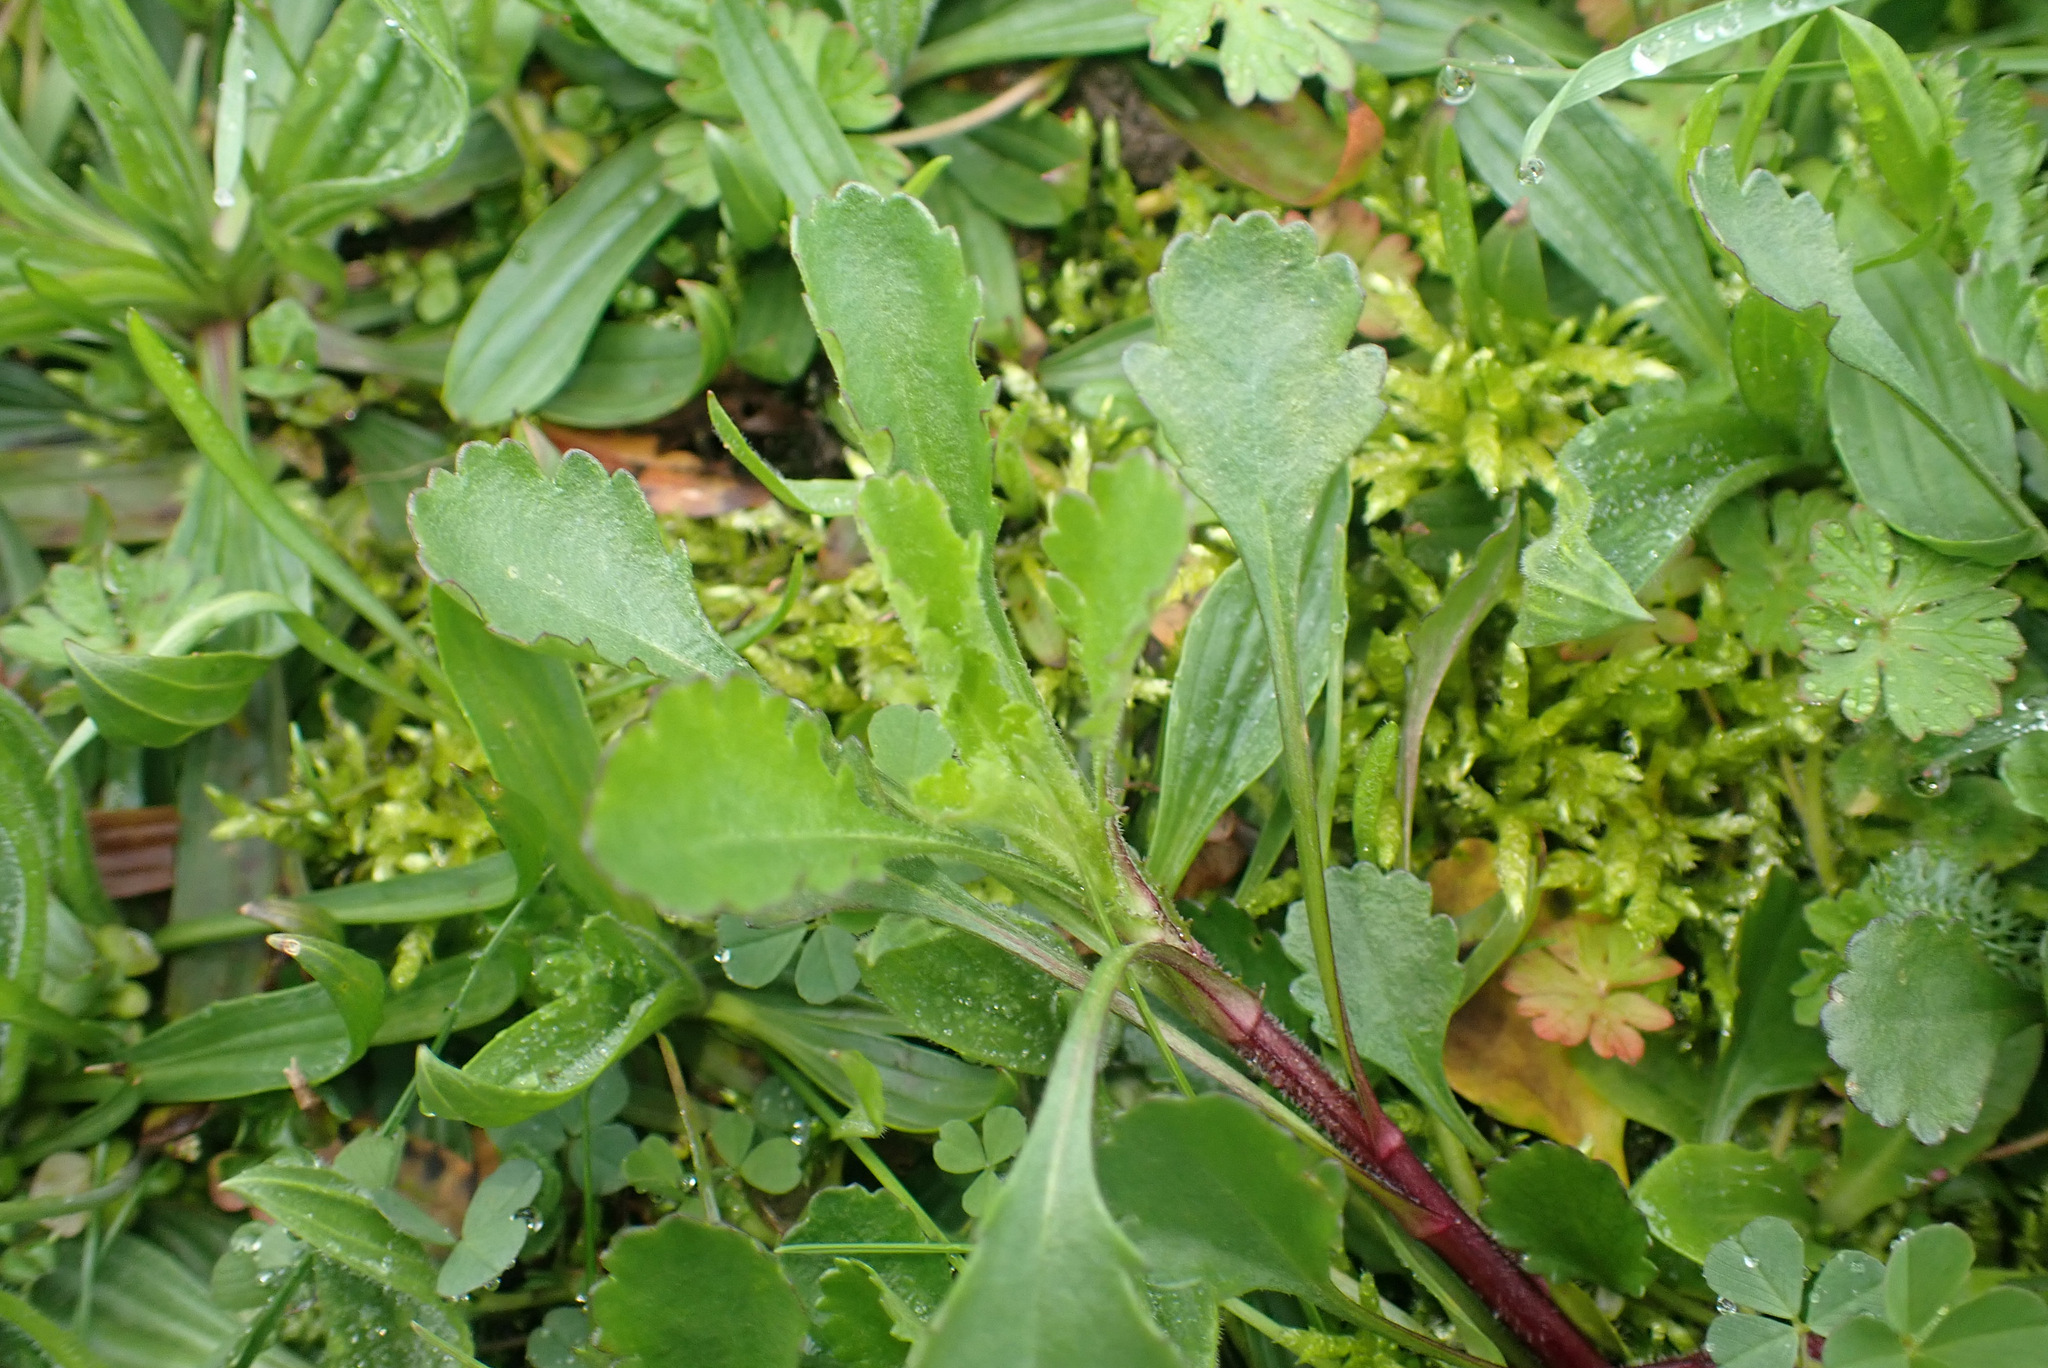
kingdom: Plantae
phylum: Tracheophyta
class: Magnoliopsida
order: Asterales
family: Asteraceae
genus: Leucanthemum
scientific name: Leucanthemum vulgare
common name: Oxeye daisy
